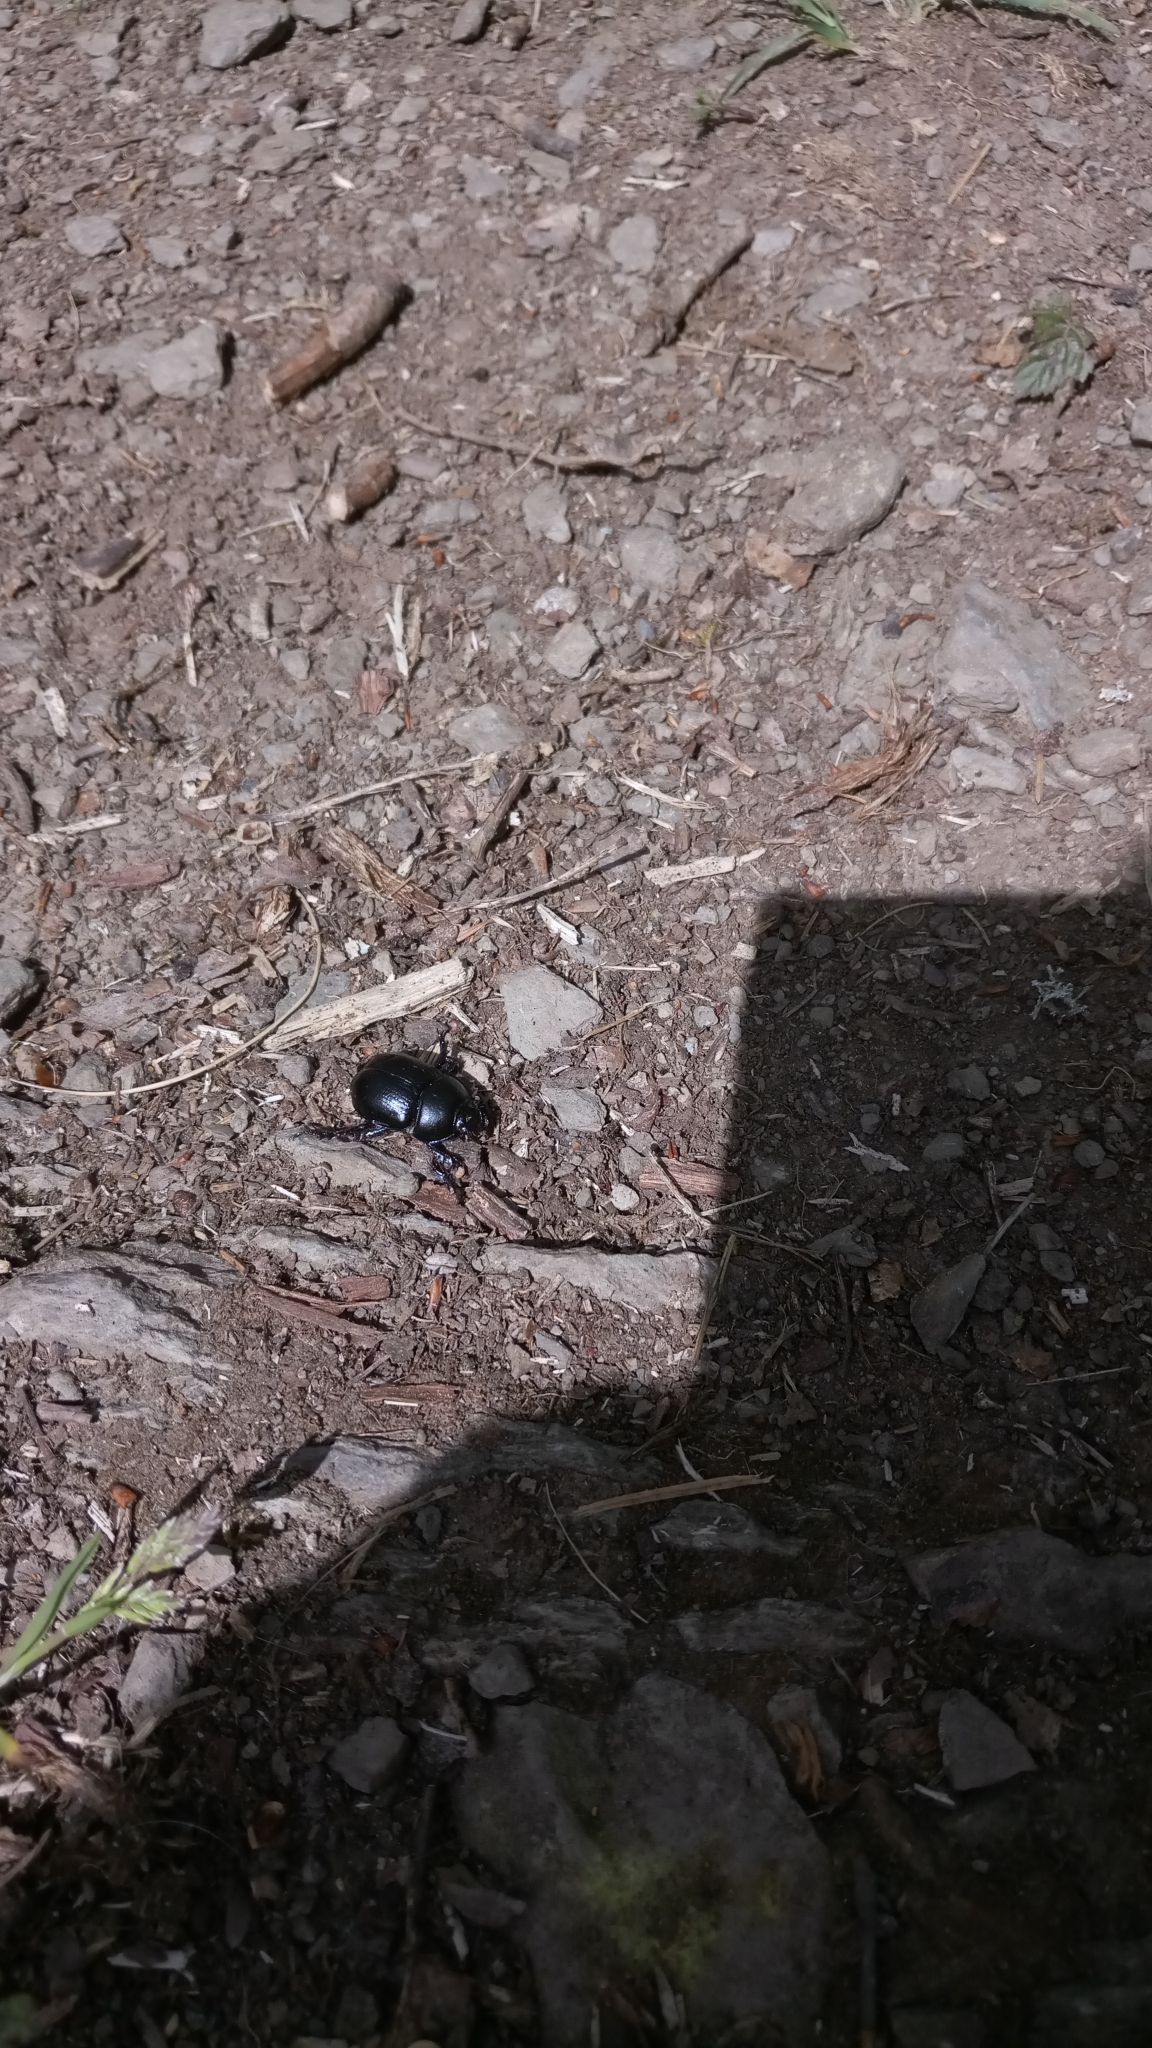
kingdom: Animalia
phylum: Arthropoda
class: Insecta
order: Coleoptera
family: Geotrupidae
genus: Anoplotrupes
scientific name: Anoplotrupes stercorosus
